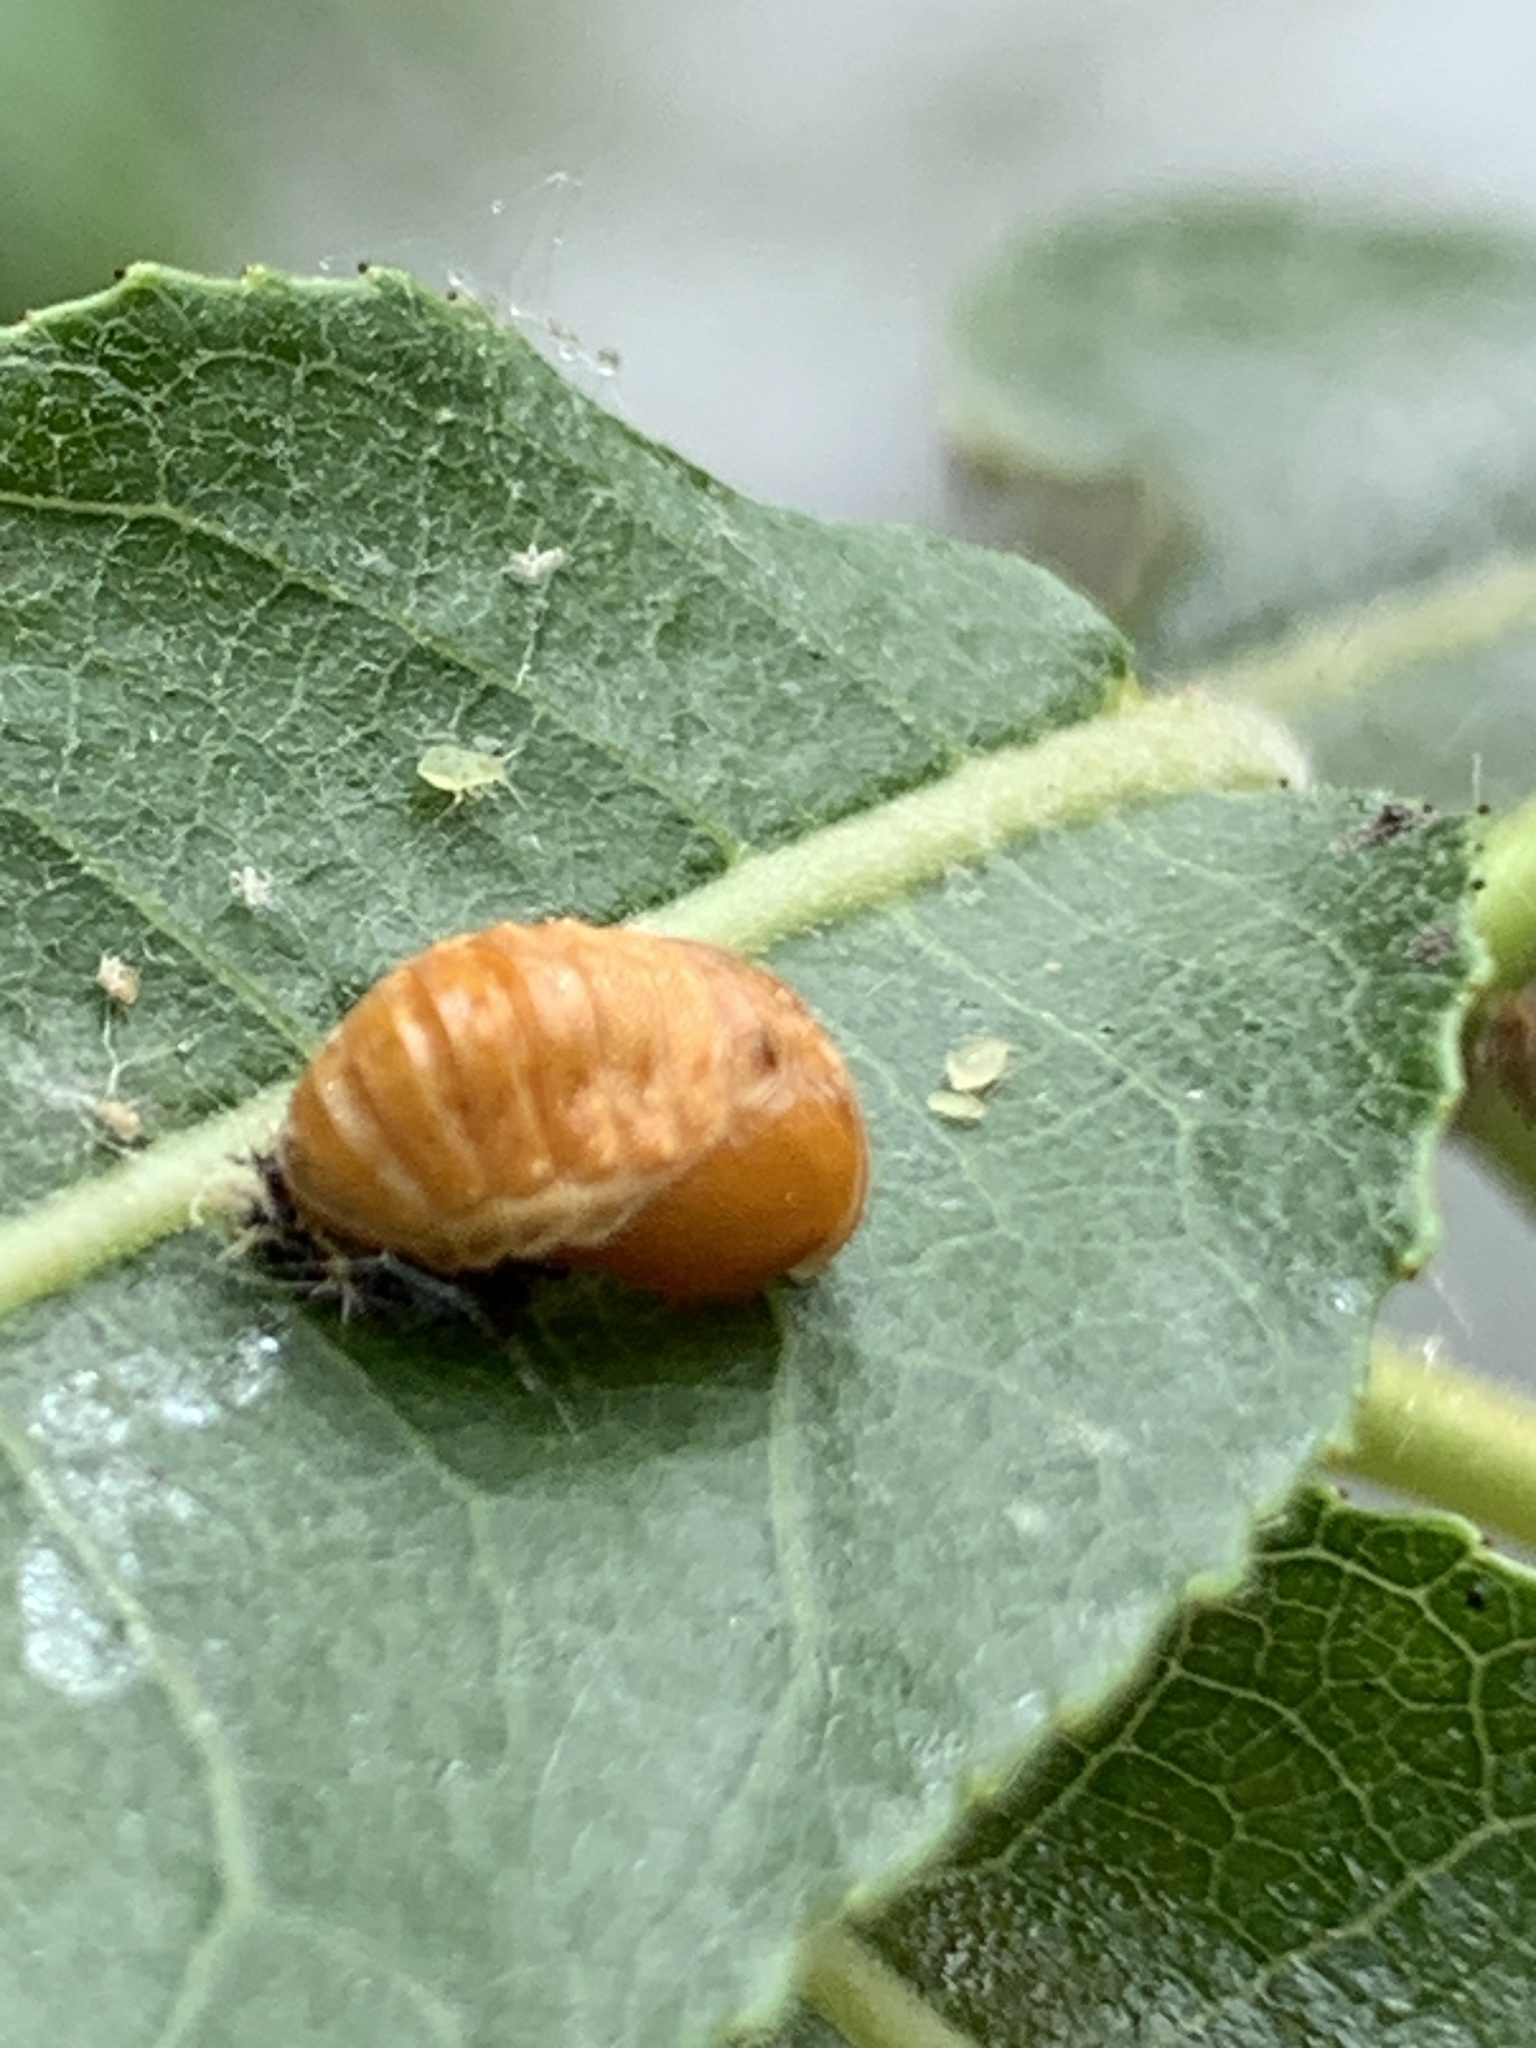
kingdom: Animalia
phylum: Arthropoda
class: Insecta
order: Coleoptera
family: Coccinellidae
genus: Harmonia
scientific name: Harmonia axyridis
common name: Harlequin ladybird
